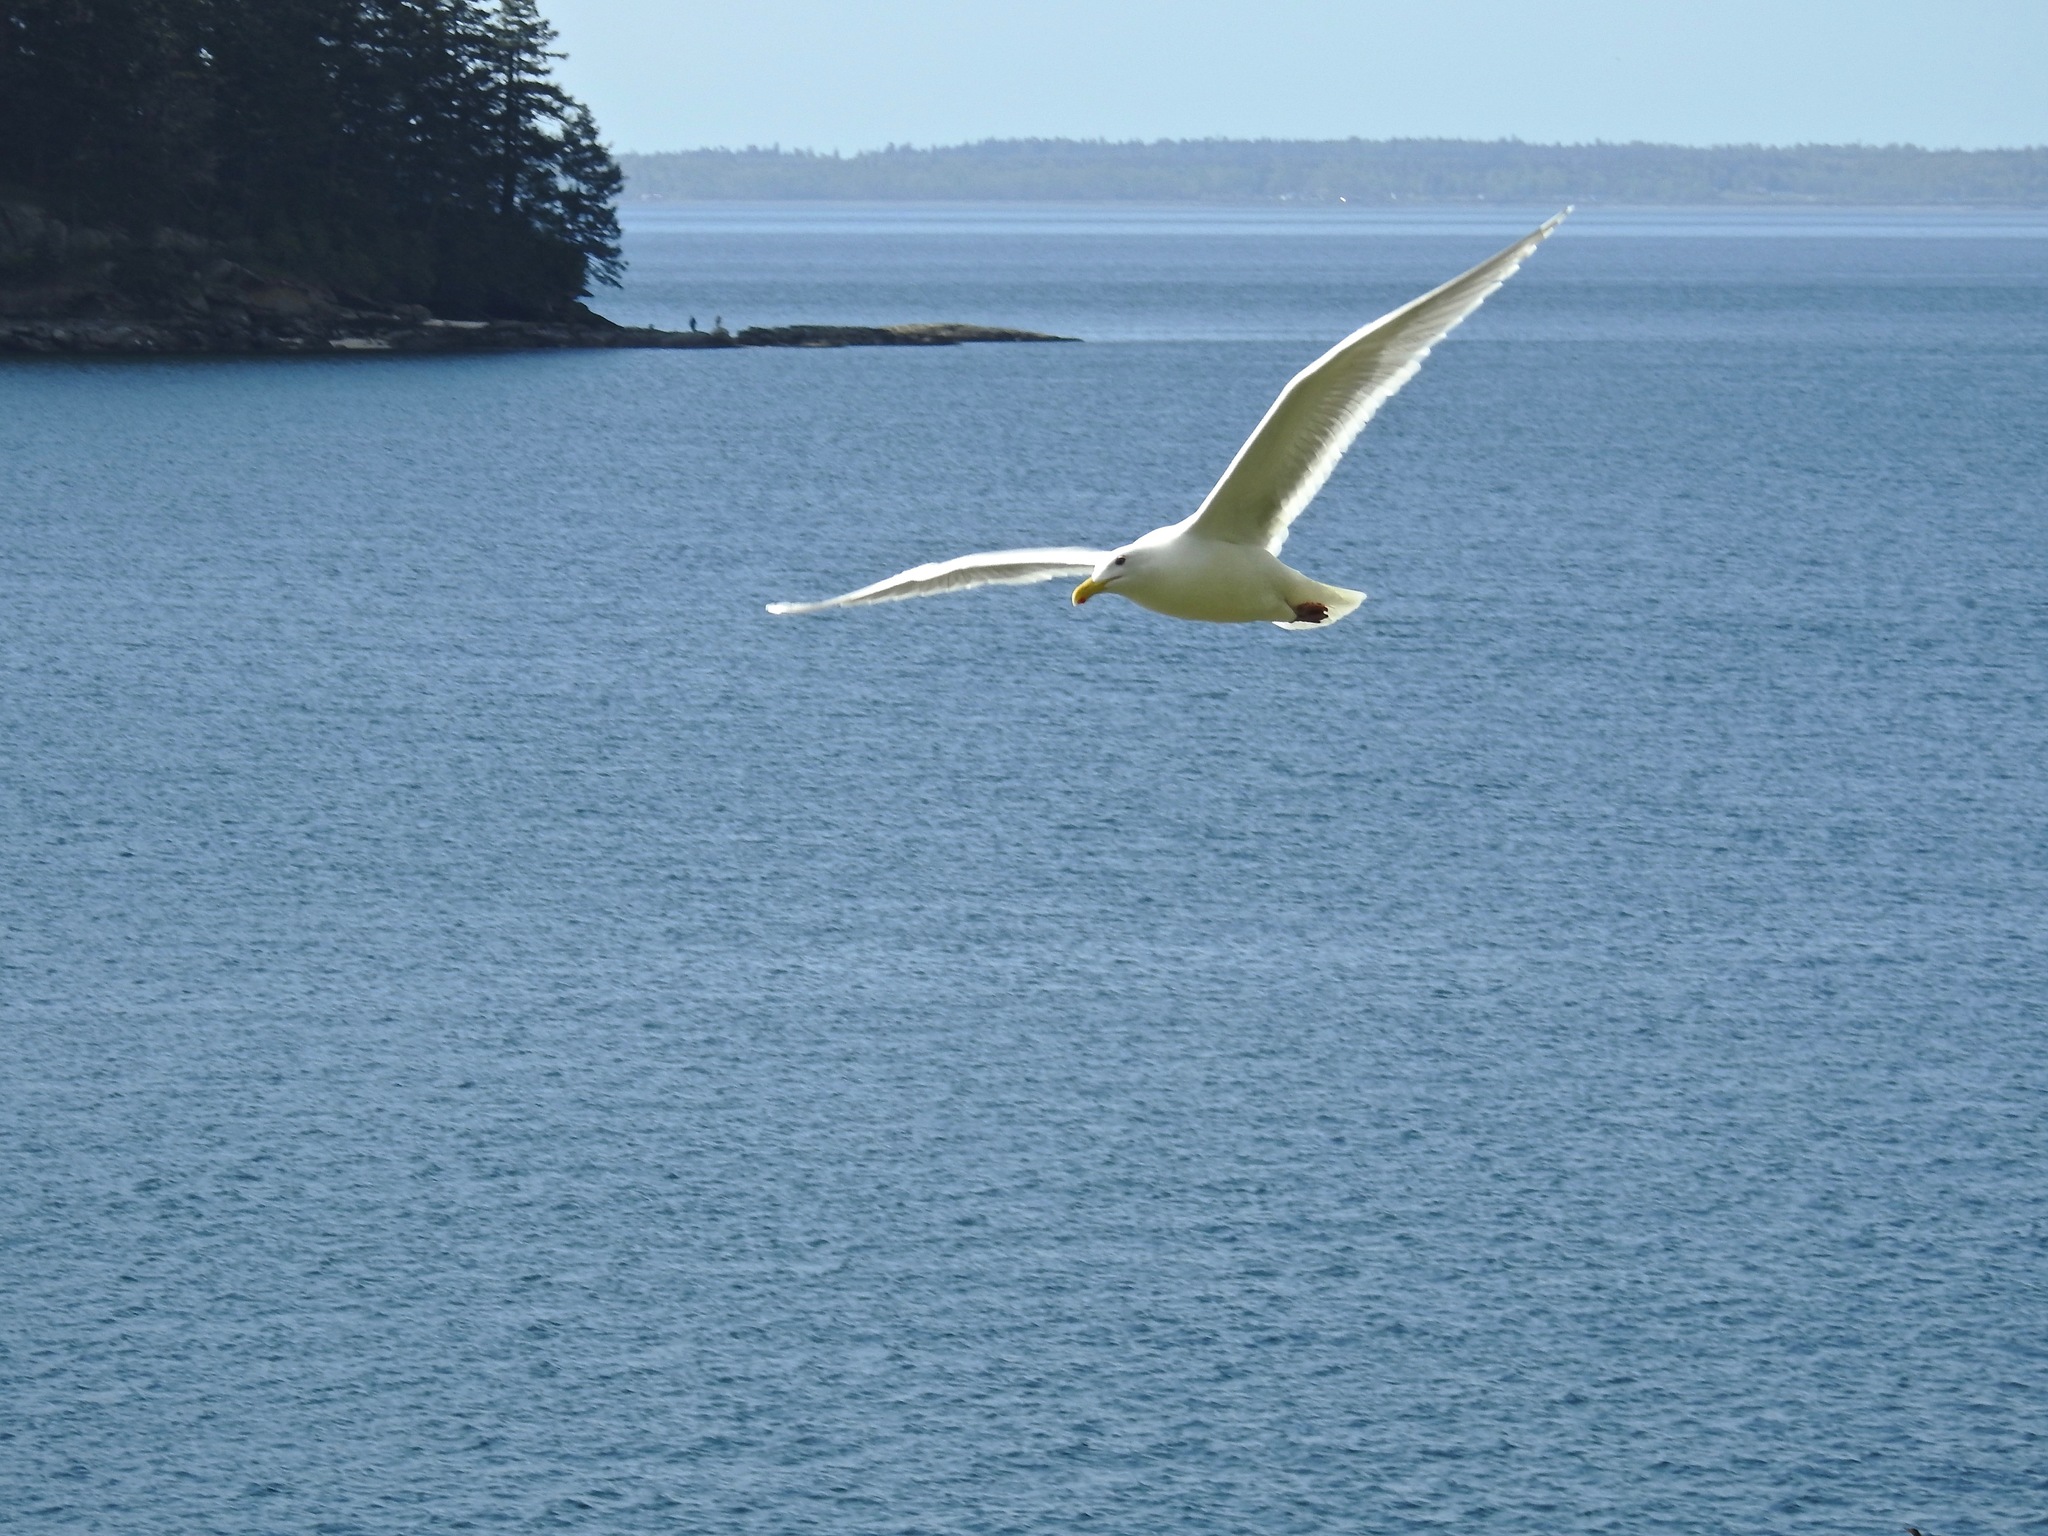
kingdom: Animalia
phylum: Chordata
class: Aves
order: Charadriiformes
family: Laridae
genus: Larus
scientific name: Larus glaucescens
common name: Glaucous-winged gull
